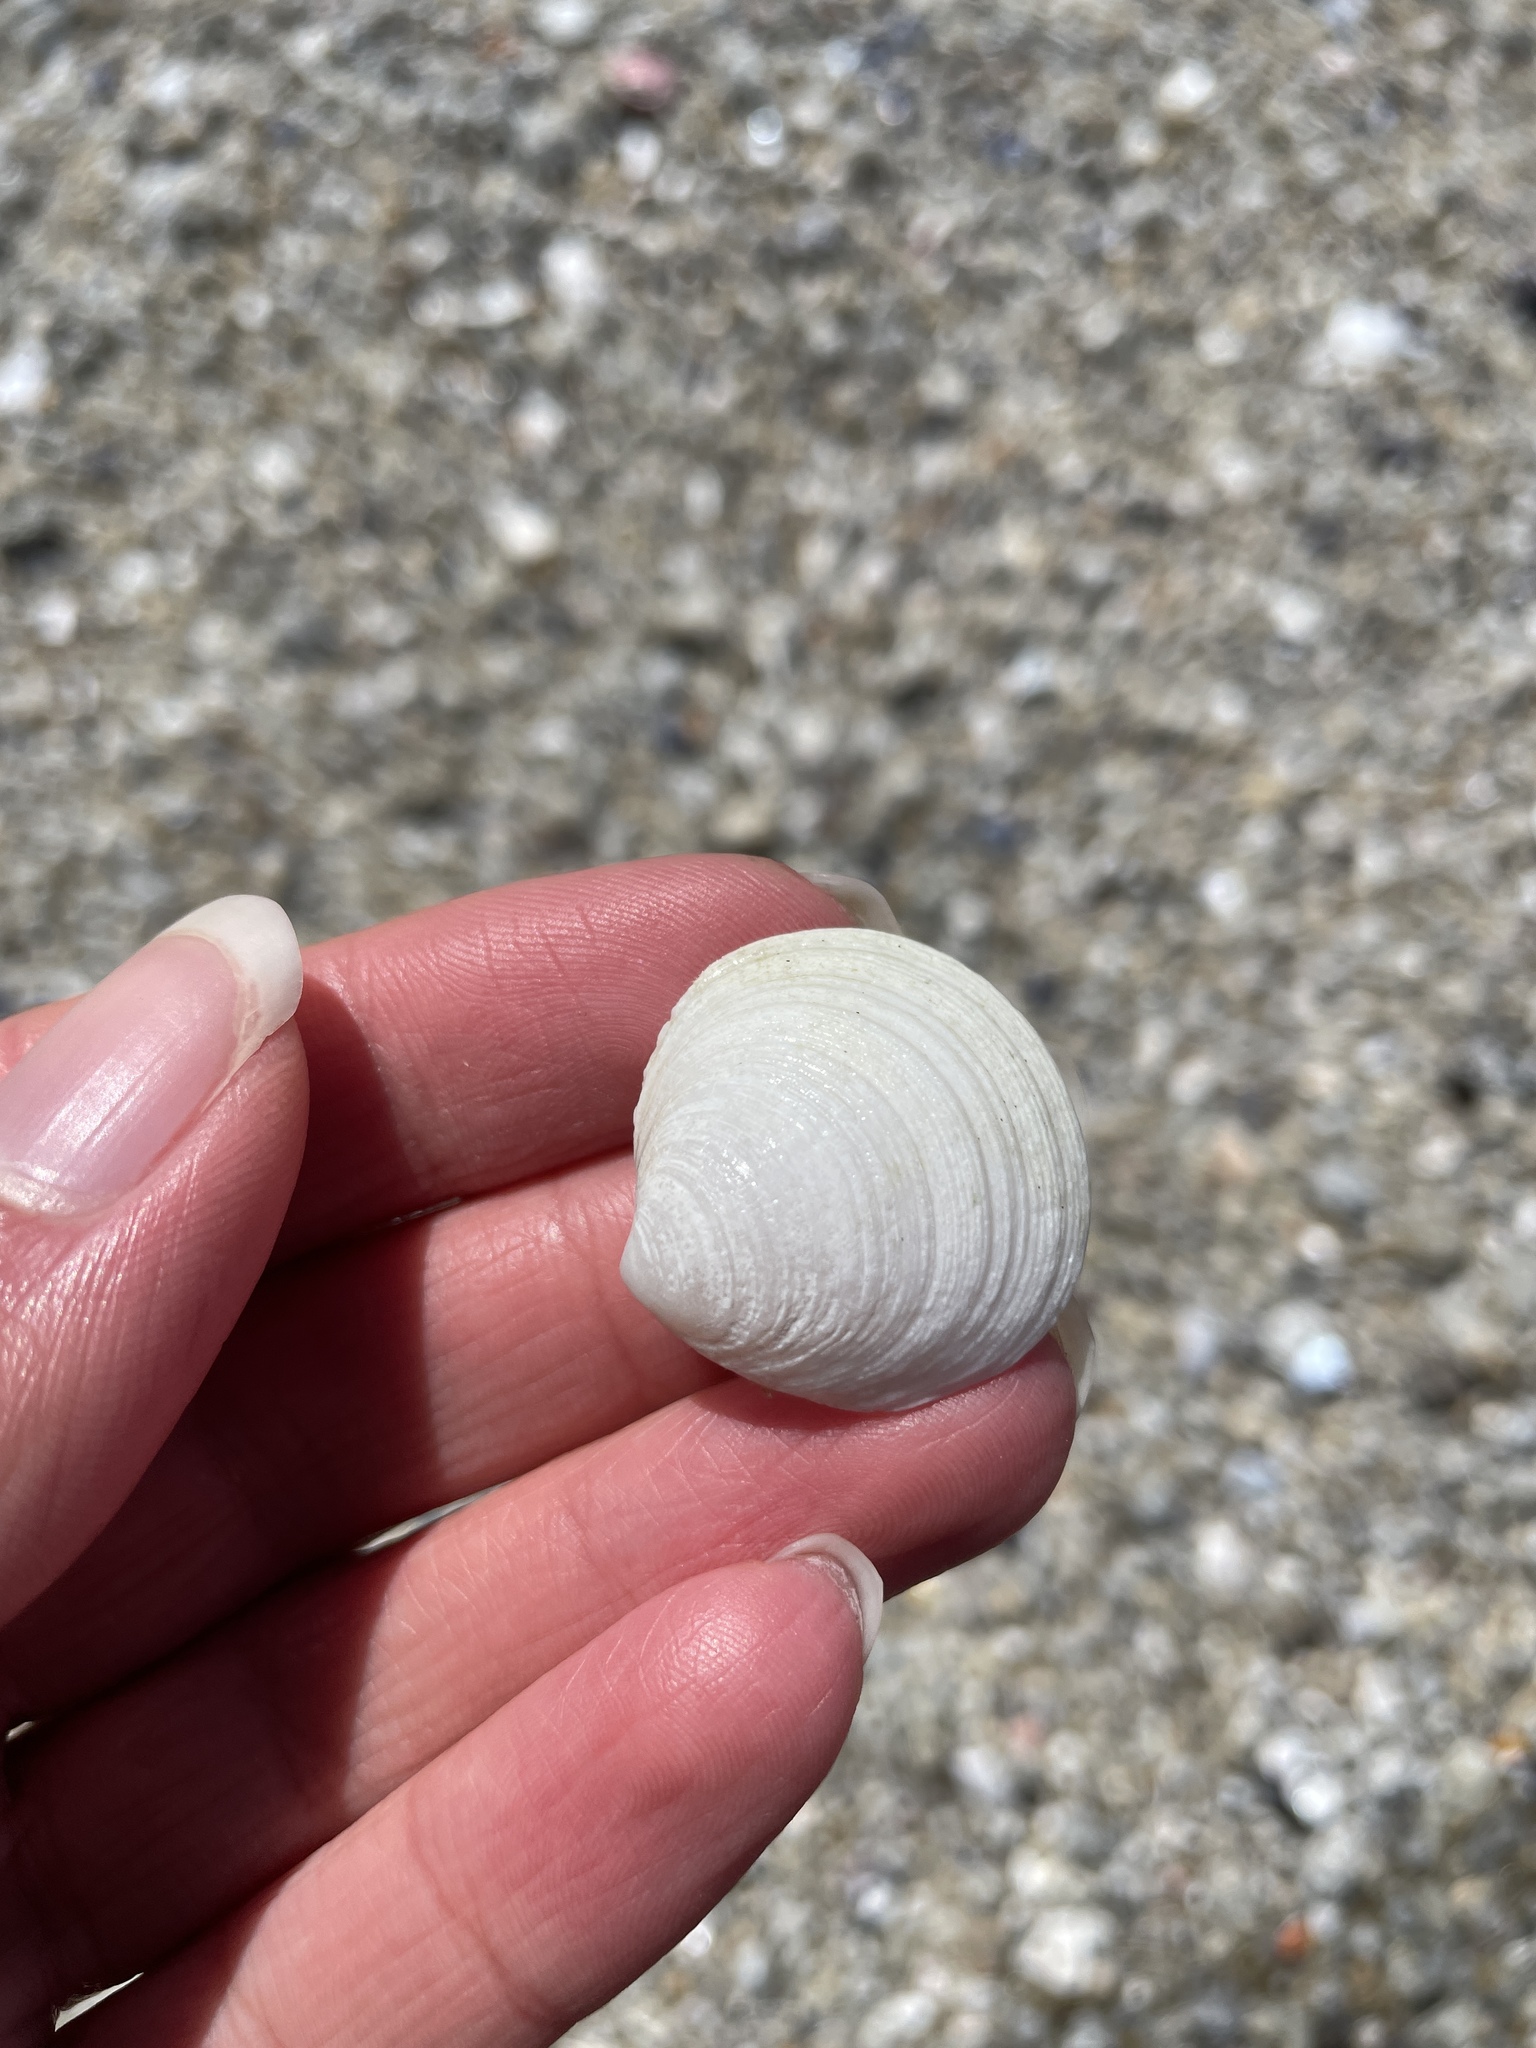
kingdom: Animalia
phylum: Mollusca
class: Bivalvia
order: Lucinida
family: Lucinidae
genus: Epilucina
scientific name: Epilucina californica
